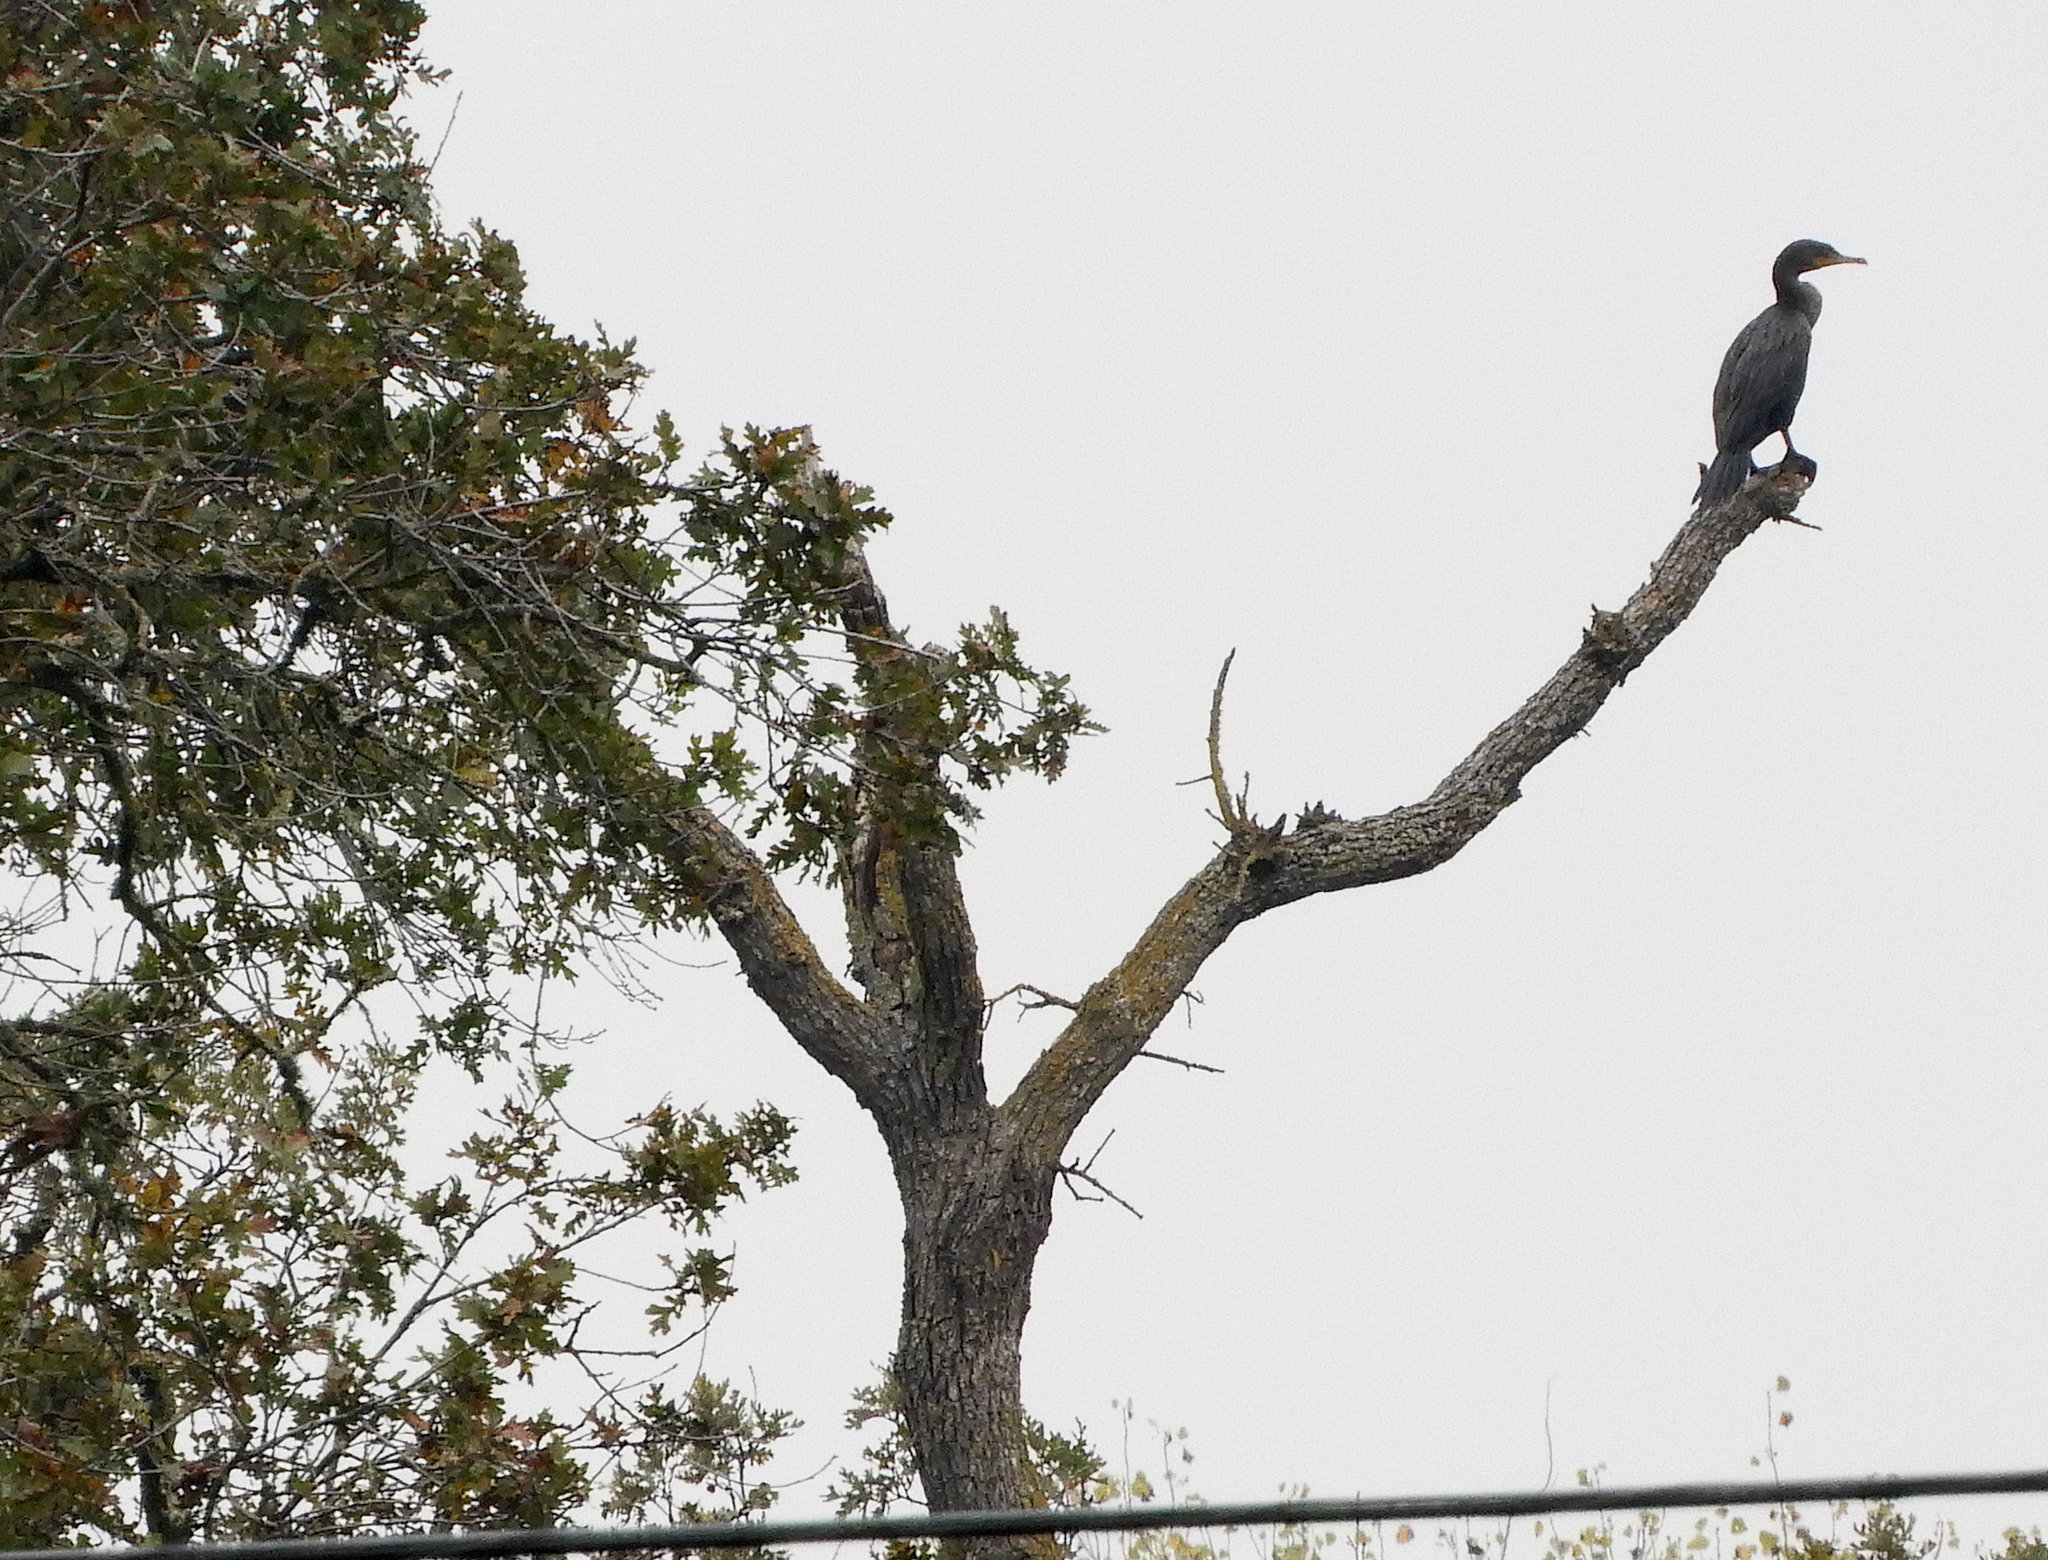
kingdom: Animalia
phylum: Chordata
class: Aves
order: Suliformes
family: Phalacrocoracidae
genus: Phalacrocorax
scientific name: Phalacrocorax auritus
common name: Double-crested cormorant
